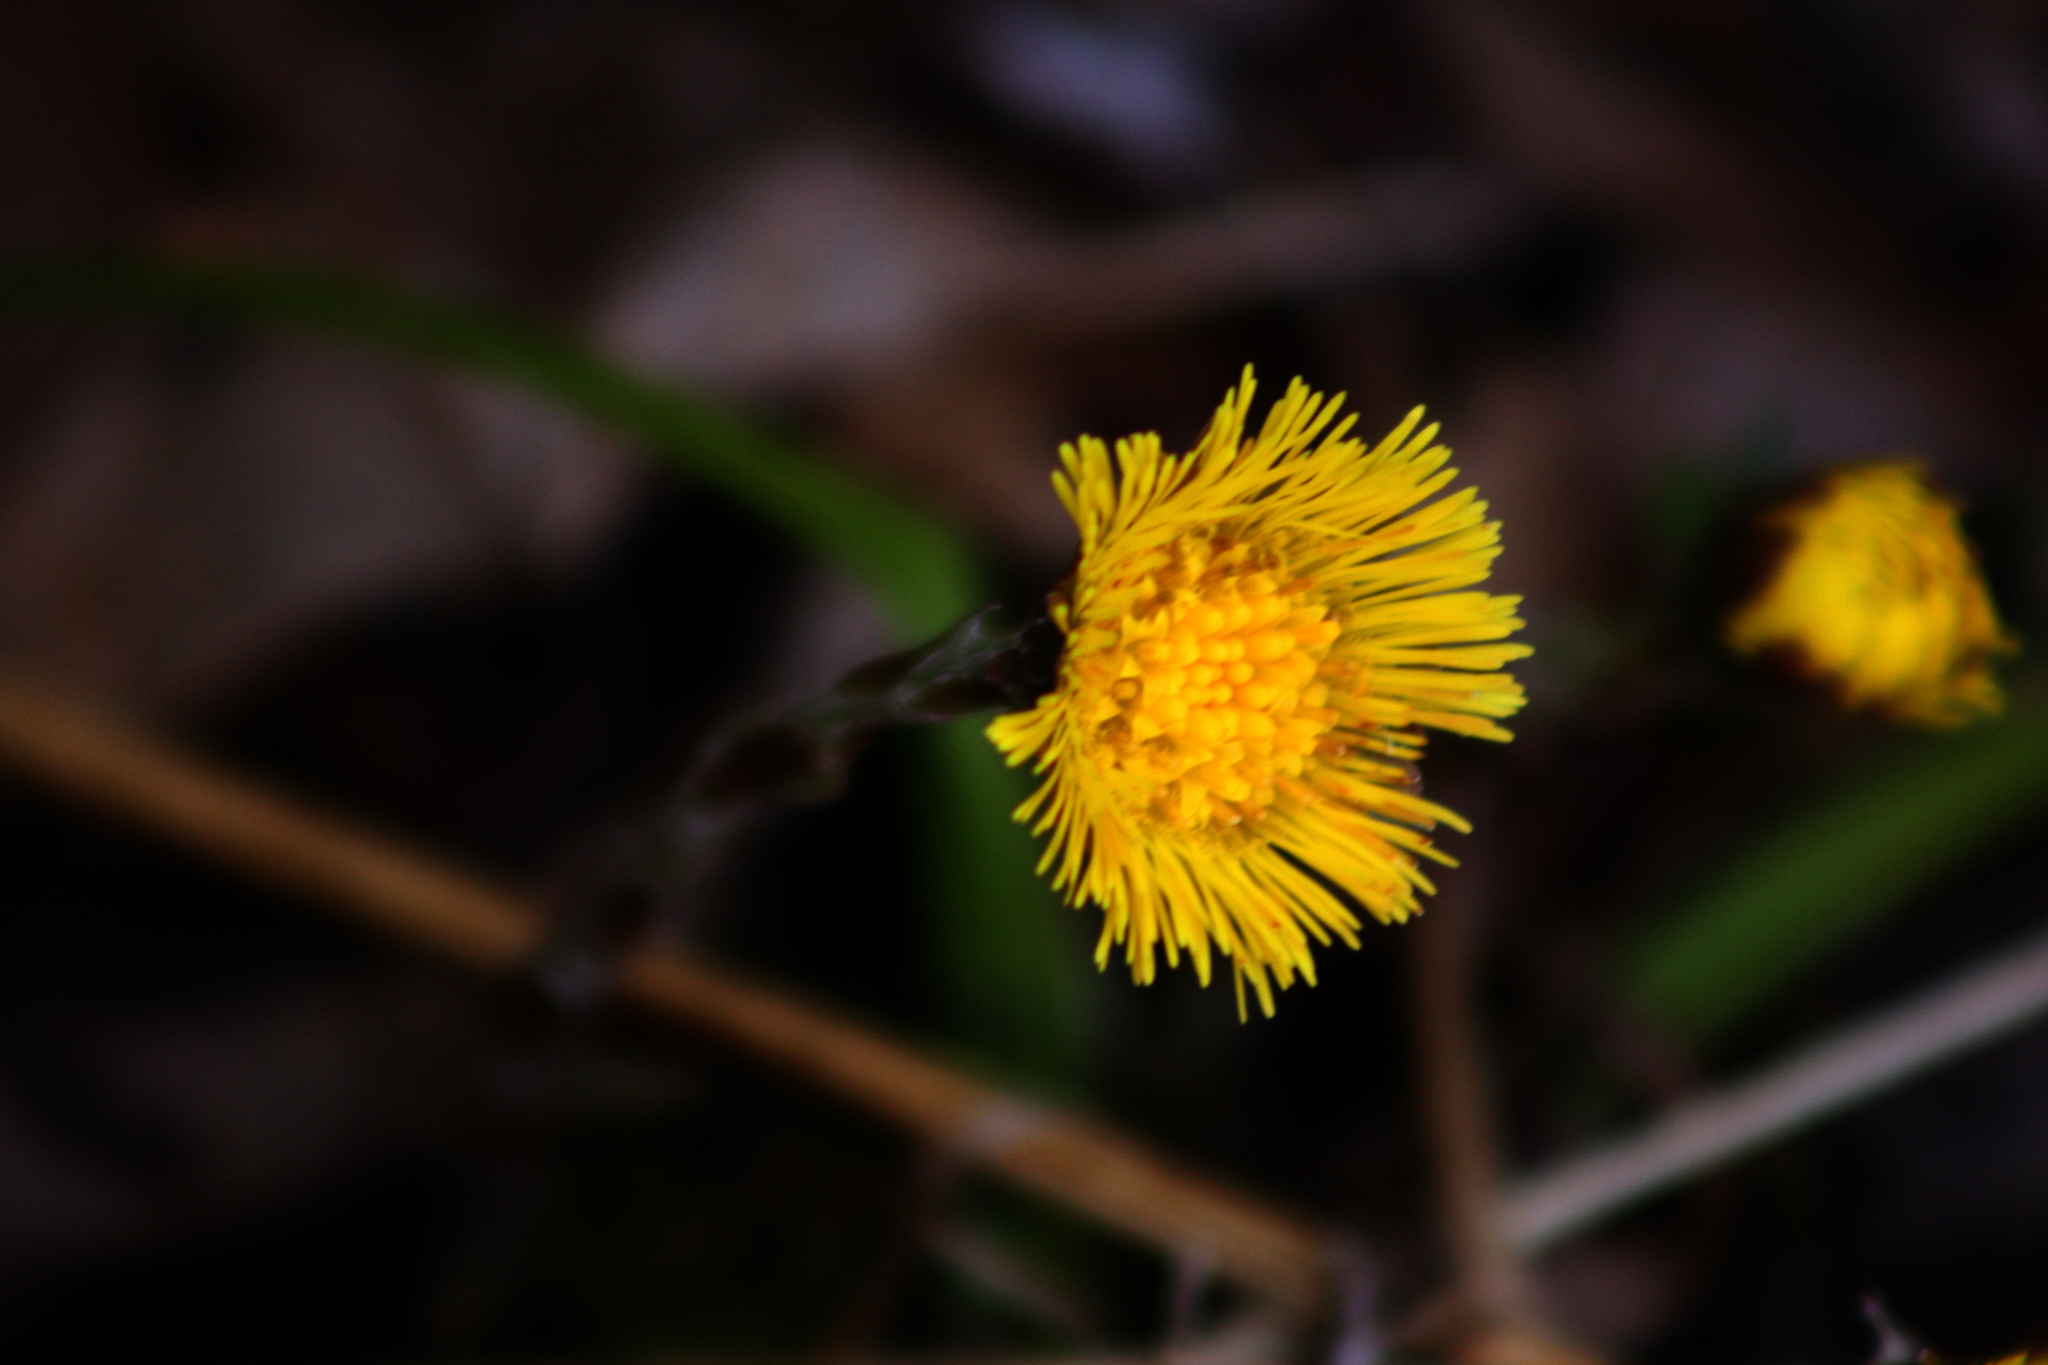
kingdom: Plantae
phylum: Tracheophyta
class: Magnoliopsida
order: Asterales
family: Asteraceae
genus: Tussilago
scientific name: Tussilago farfara
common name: Coltsfoot
